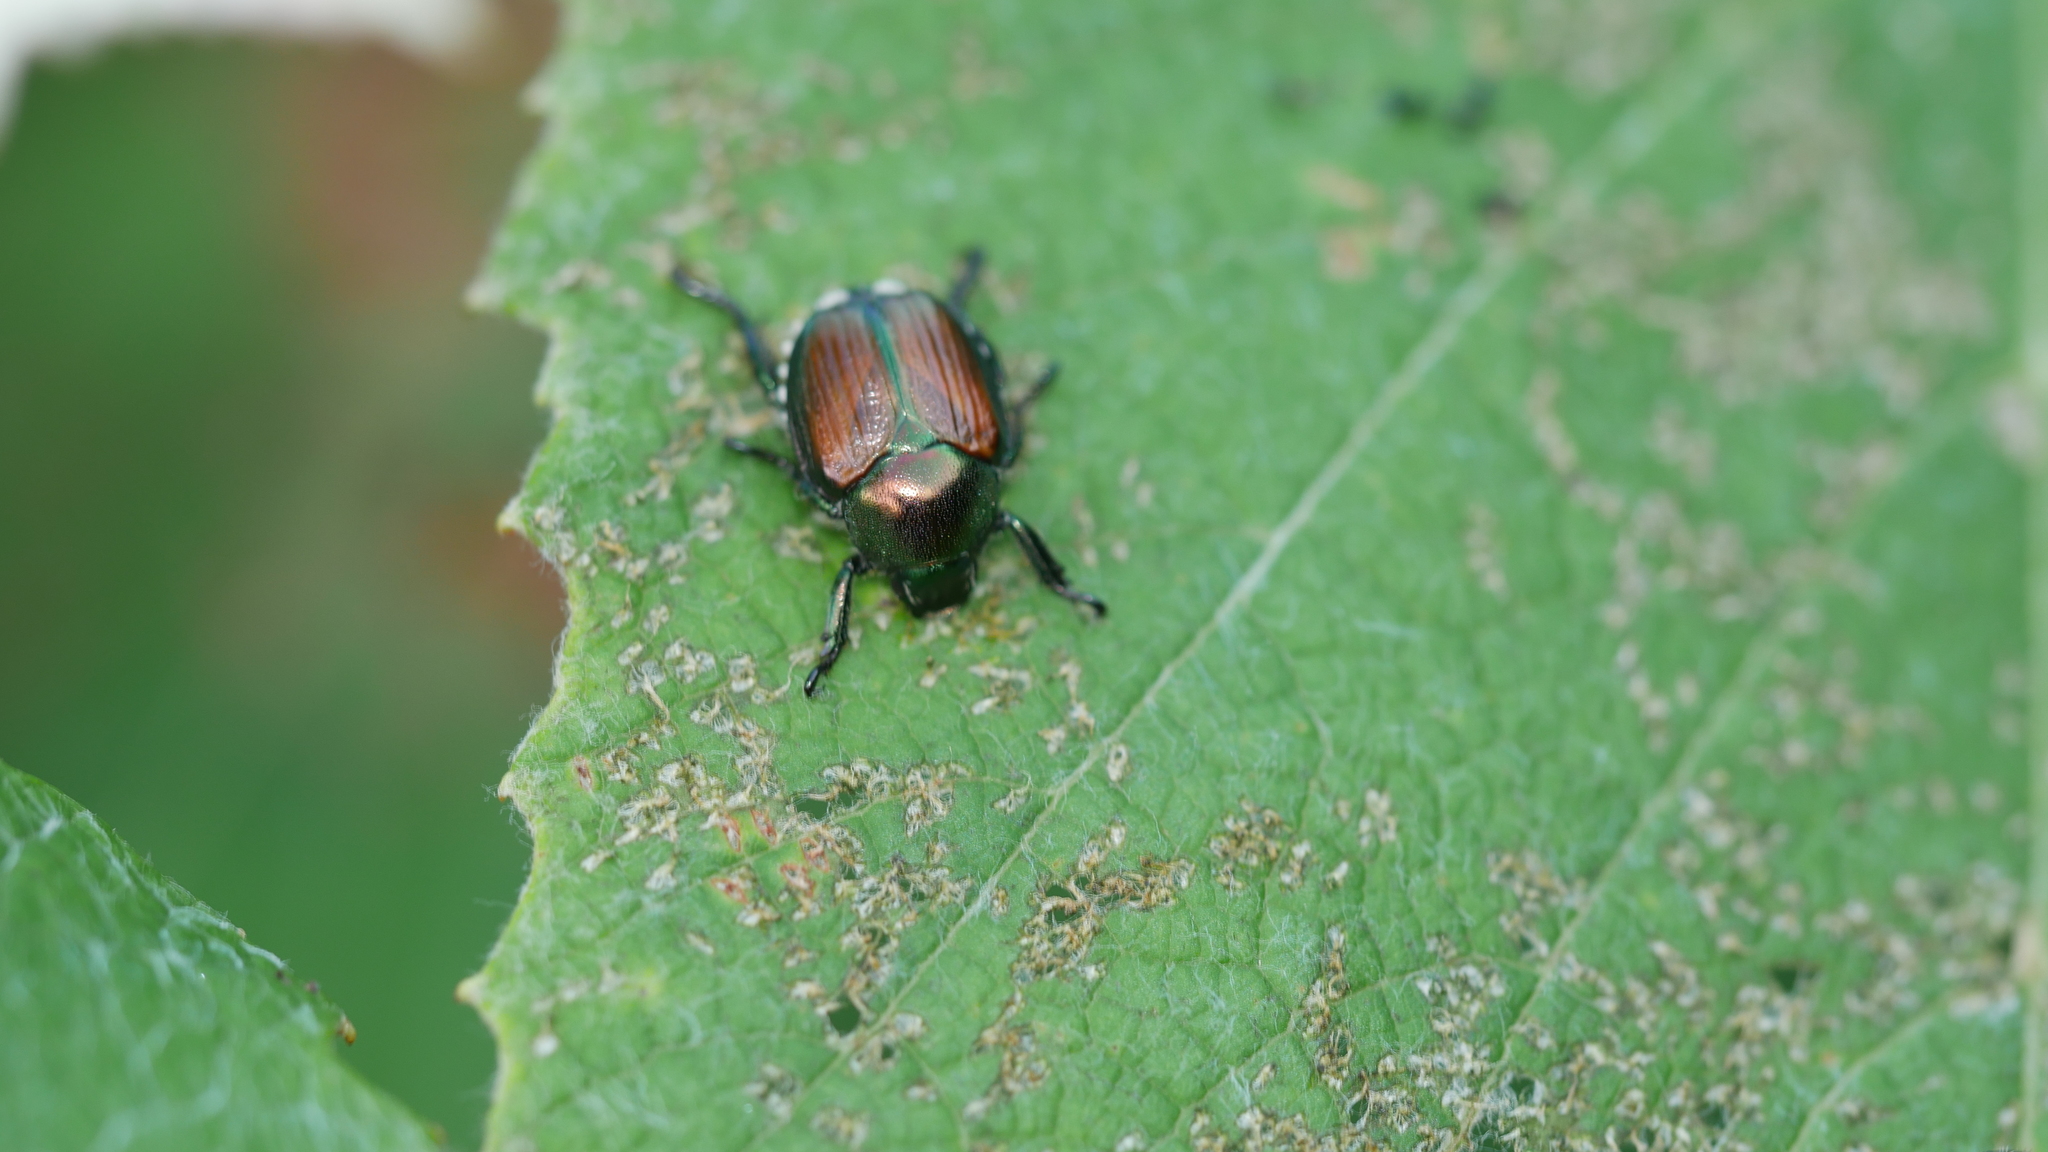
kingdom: Animalia
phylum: Arthropoda
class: Insecta
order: Coleoptera
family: Scarabaeidae
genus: Popillia
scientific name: Popillia japonica
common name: Japanese beetle
